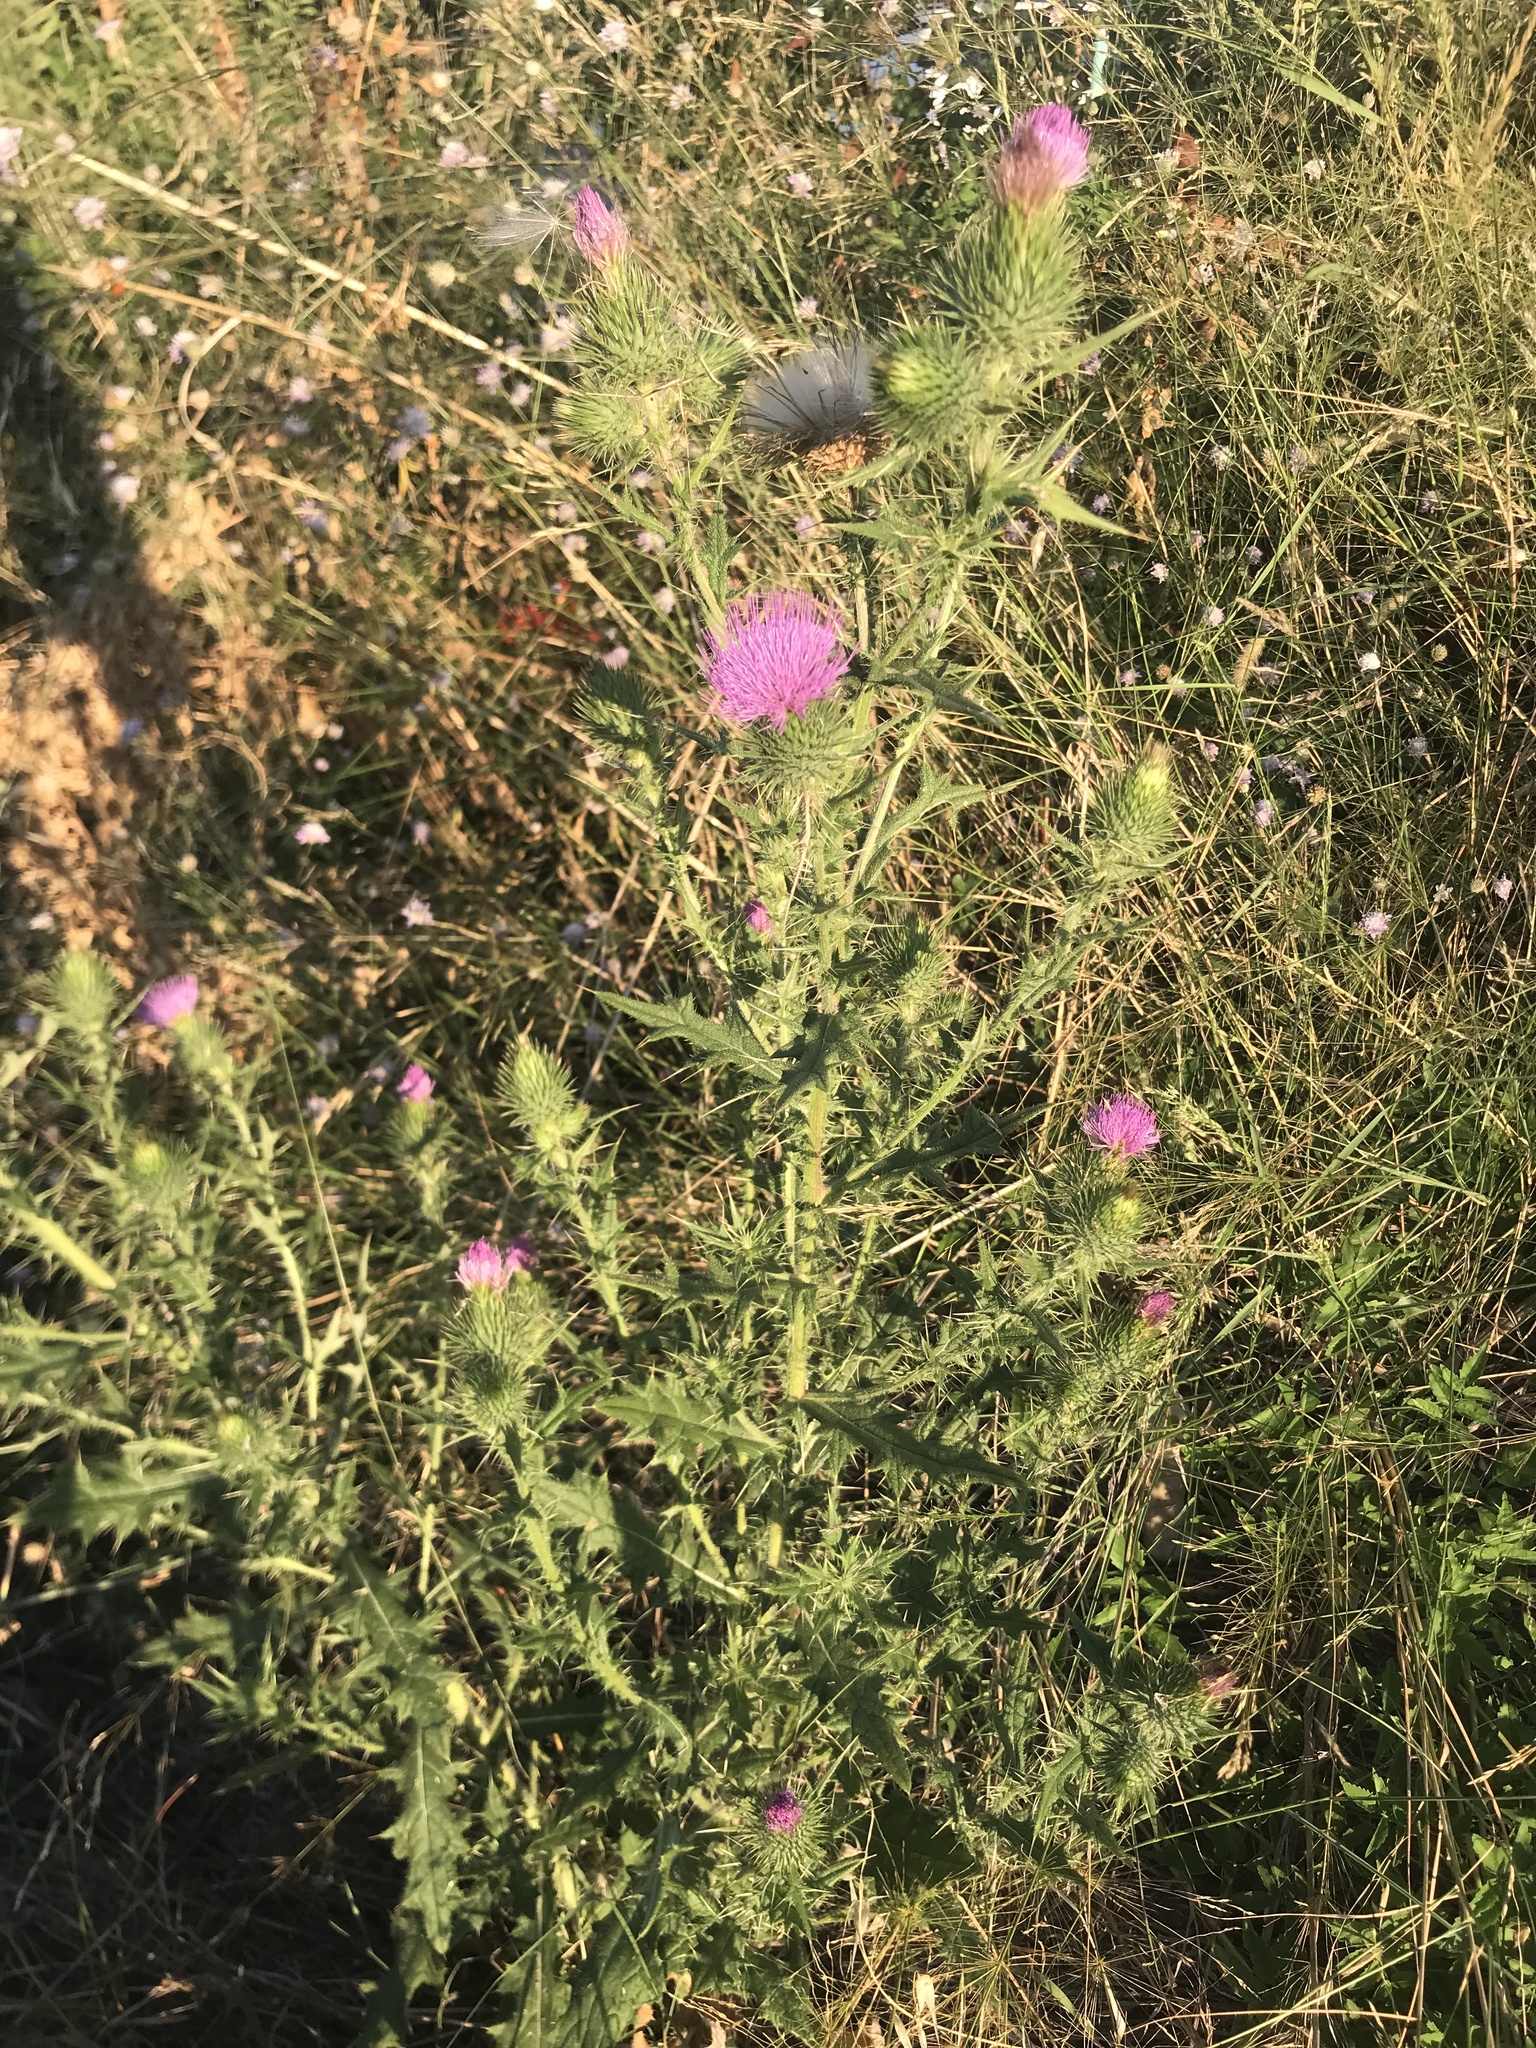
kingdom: Plantae
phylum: Tracheophyta
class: Magnoliopsida
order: Asterales
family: Asteraceae
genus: Cirsium
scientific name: Cirsium vulgare
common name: Bull thistle
